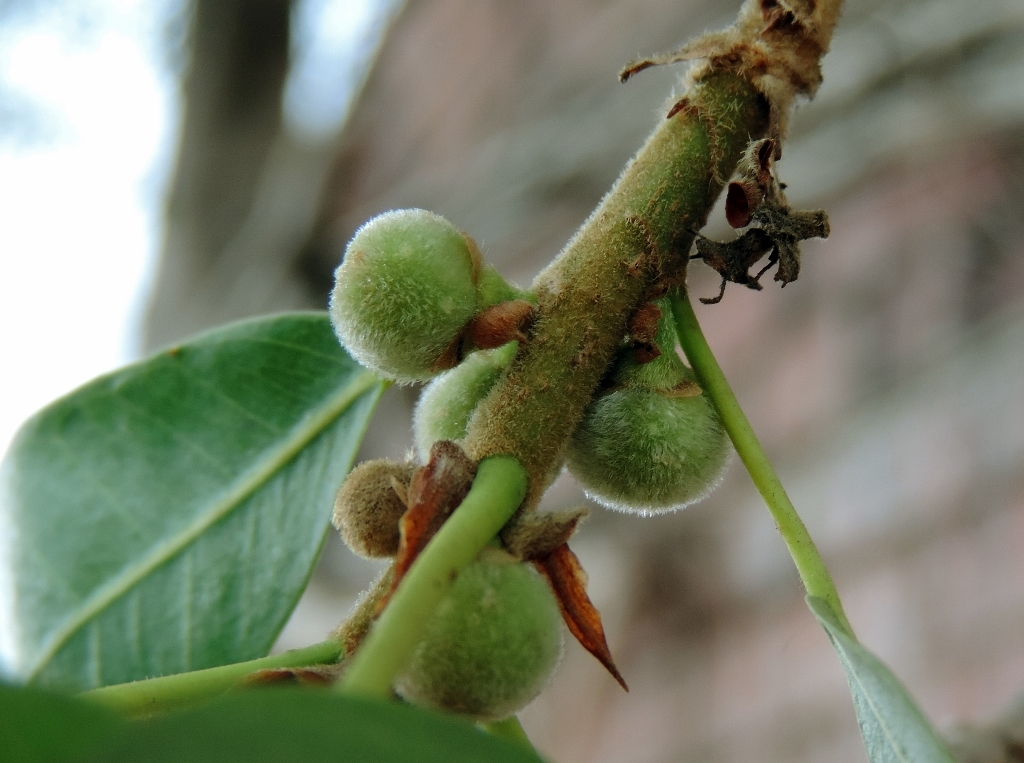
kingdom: Plantae
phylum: Tracheophyta
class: Magnoliopsida
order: Rosales
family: Moraceae
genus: Ficus
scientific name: Ficus thonningii
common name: Fig
